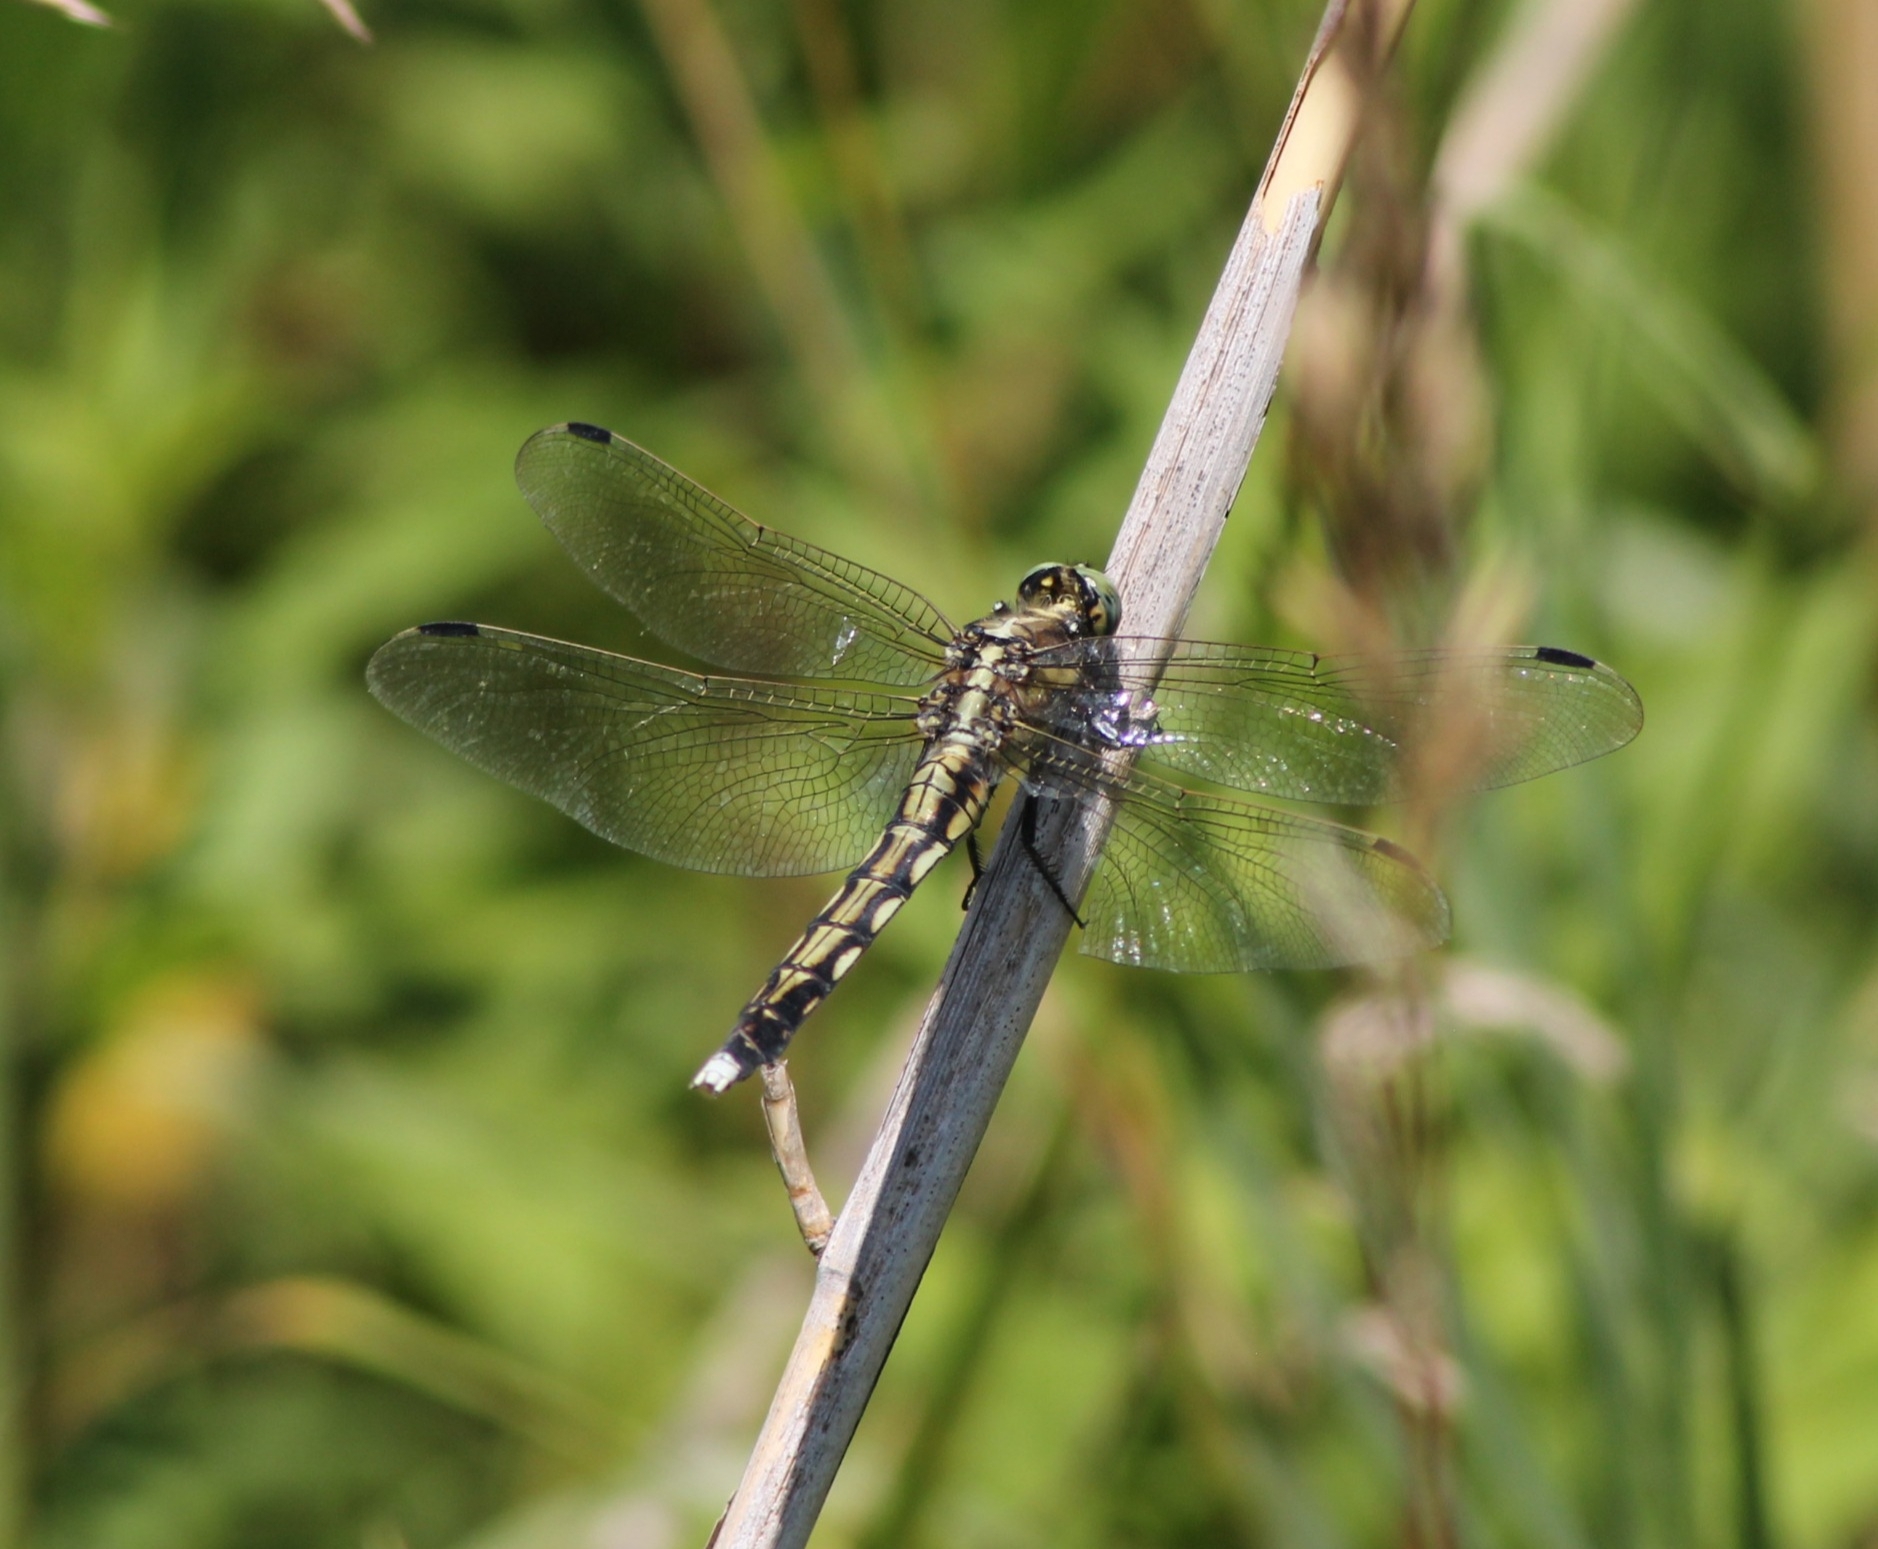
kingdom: Animalia
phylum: Arthropoda
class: Insecta
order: Odonata
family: Libellulidae
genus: Orthetrum
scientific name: Orthetrum albistylum
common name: White-tailed skimmer
